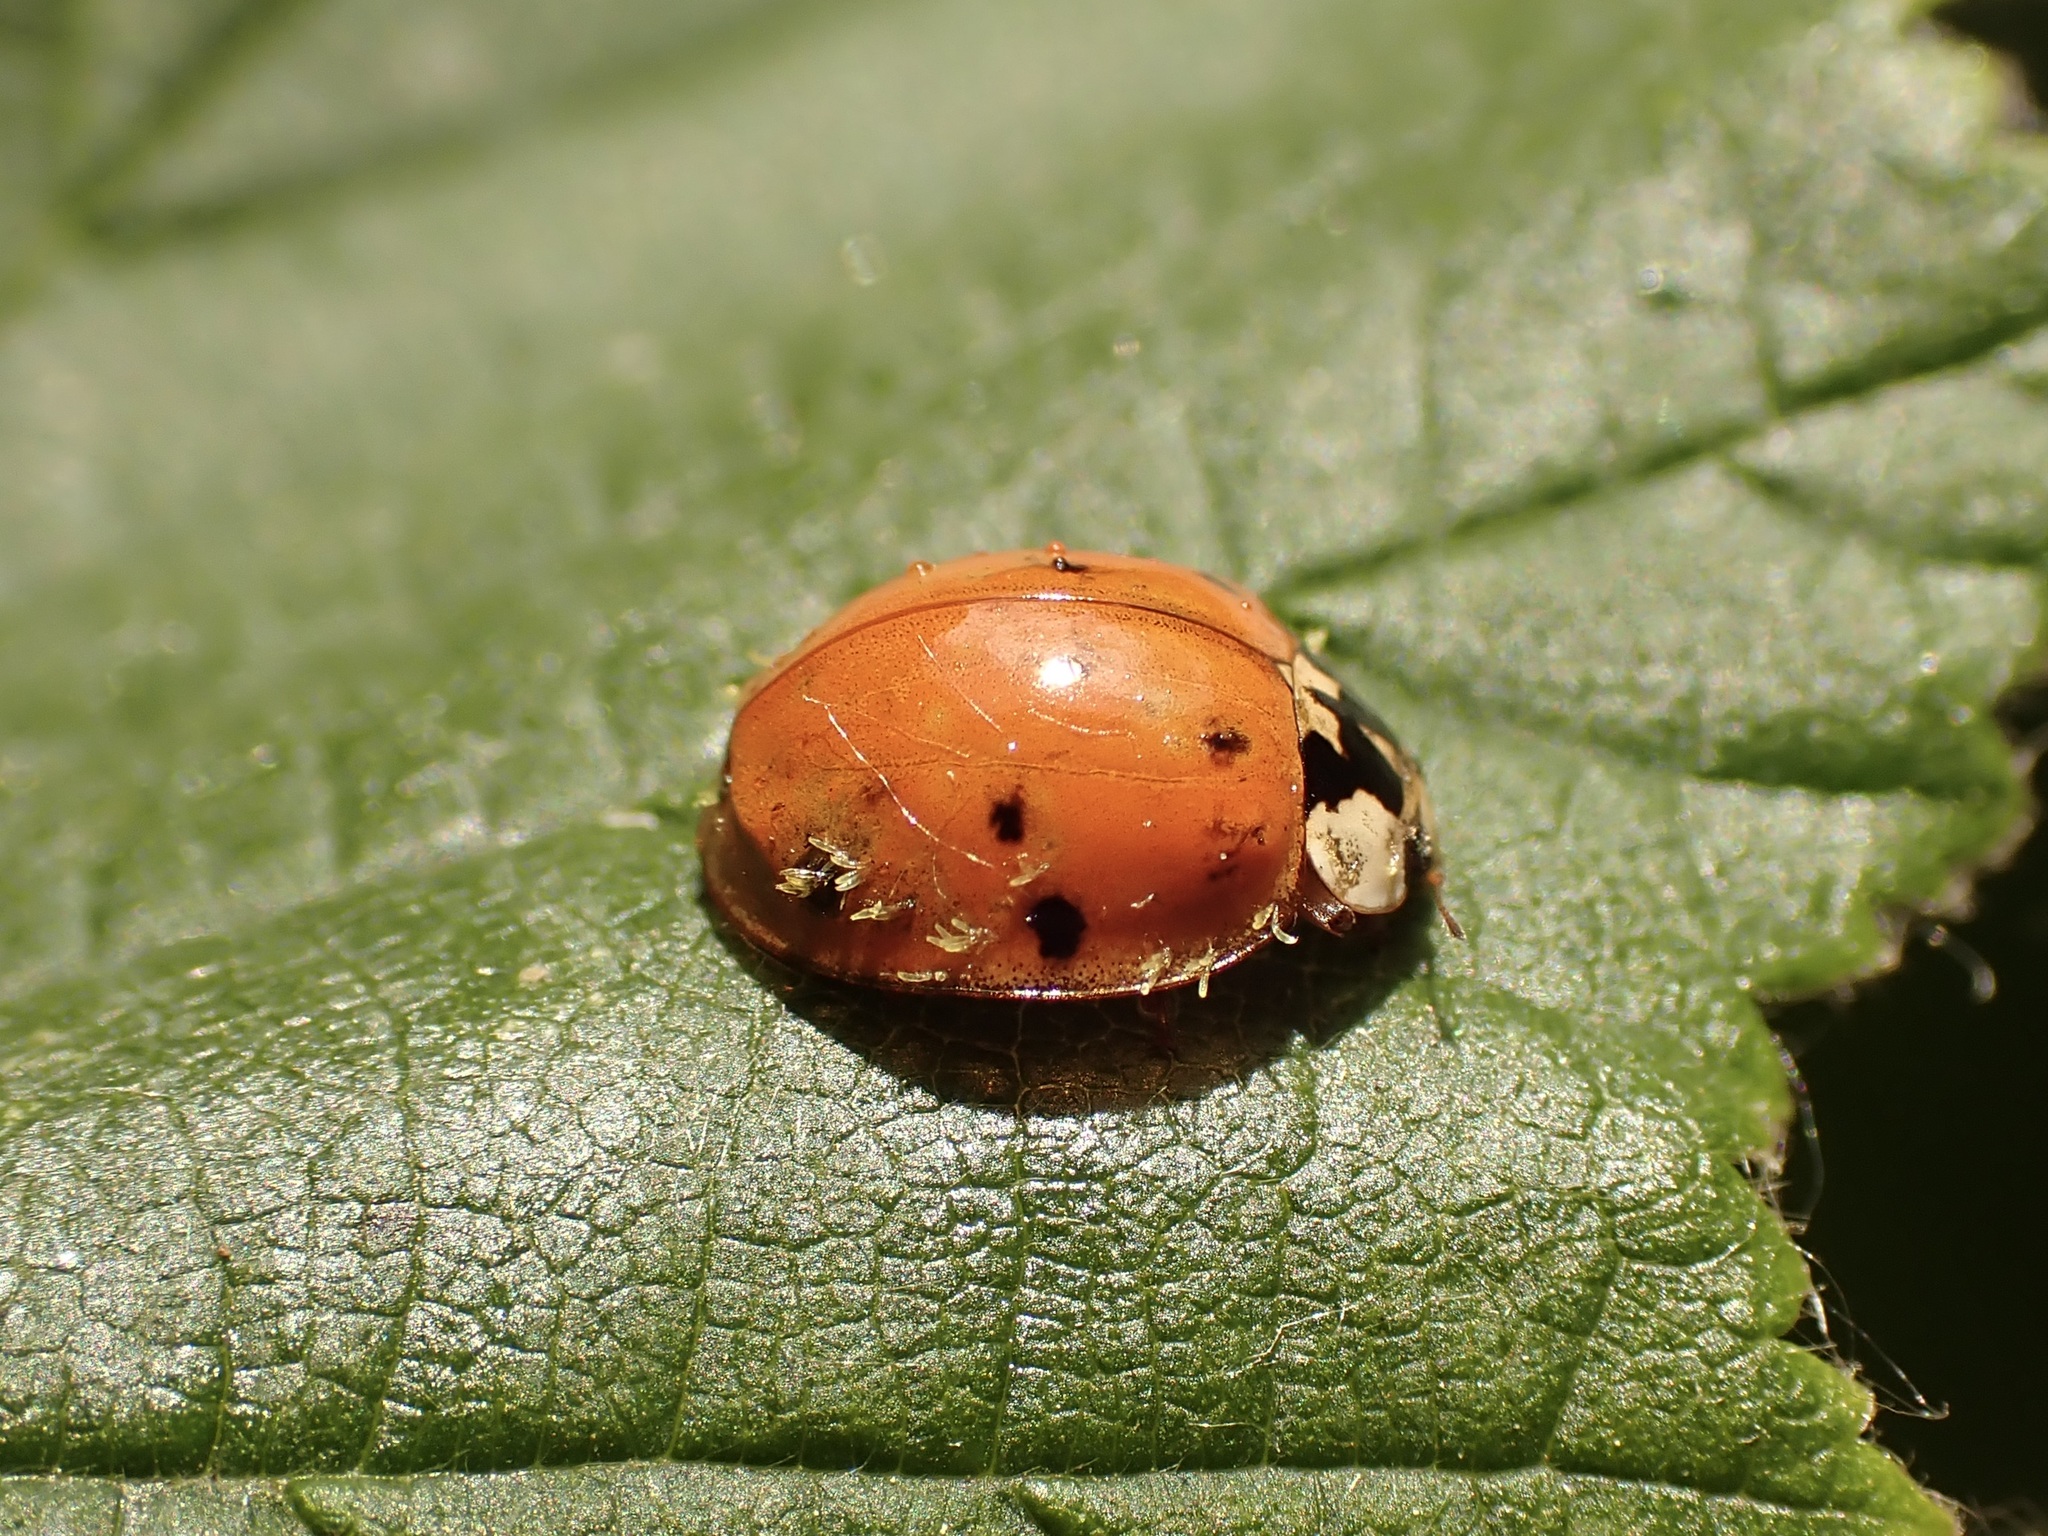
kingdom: Fungi
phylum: Ascomycota
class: Laboulbeniomycetes
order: Laboulbeniales
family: Laboulbeniaceae
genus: Hesperomyces
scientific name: Hesperomyces harmoniae
